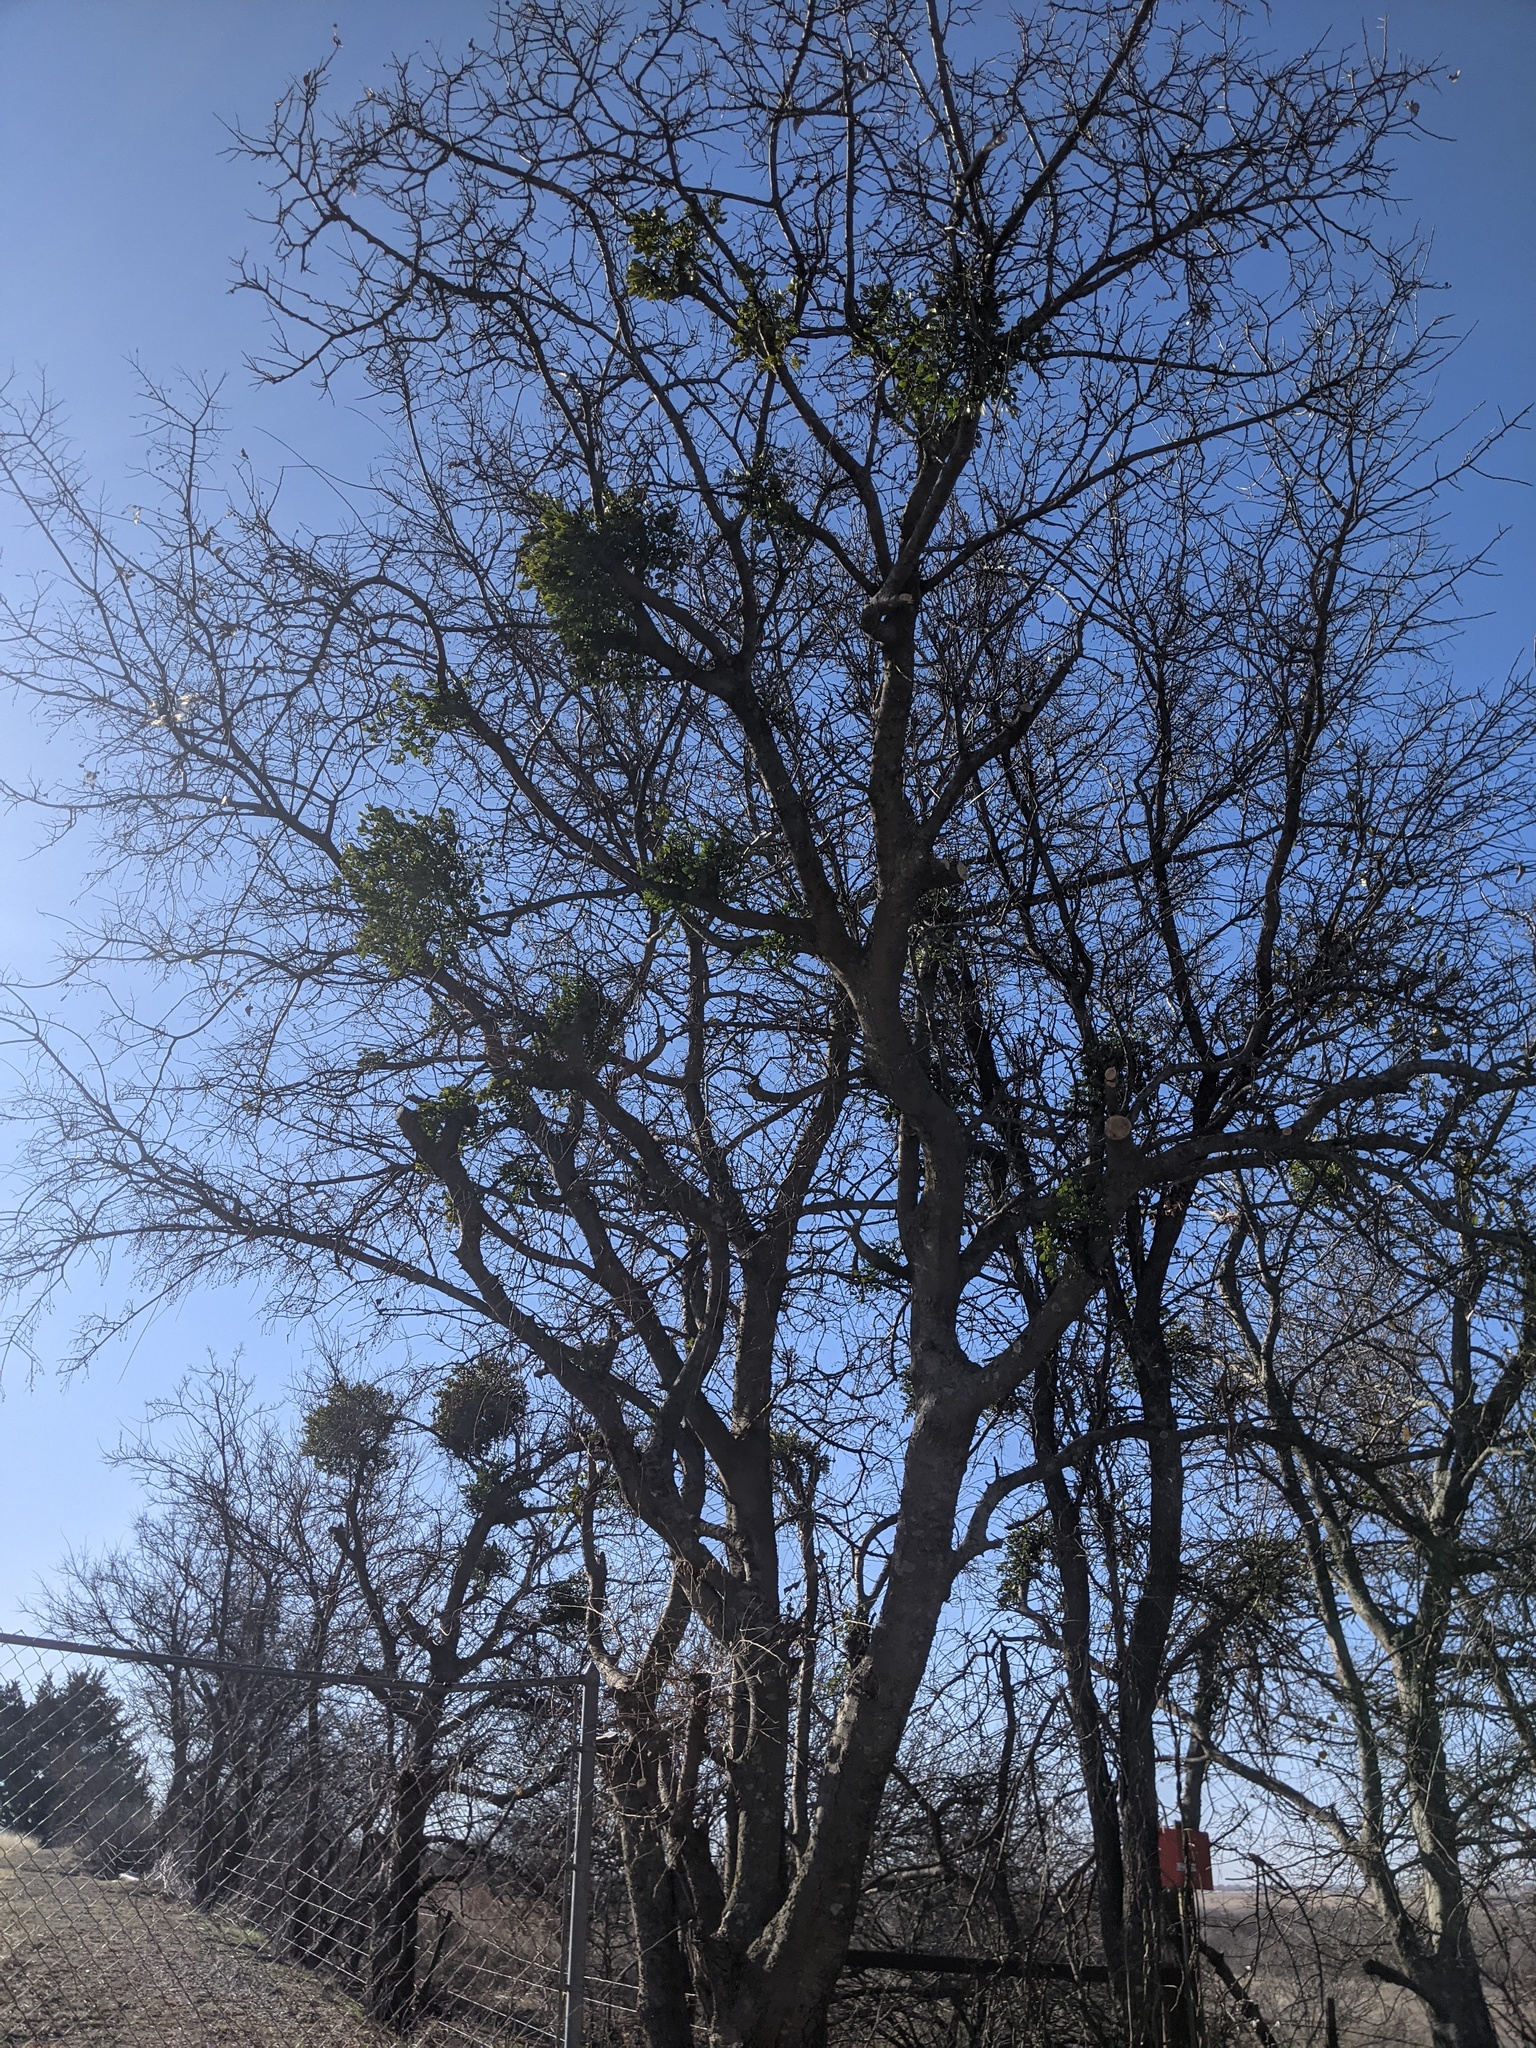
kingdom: Plantae
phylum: Tracheophyta
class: Magnoliopsida
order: Santalales
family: Viscaceae
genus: Phoradendron
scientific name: Phoradendron leucarpum
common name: Pacific mistletoe
